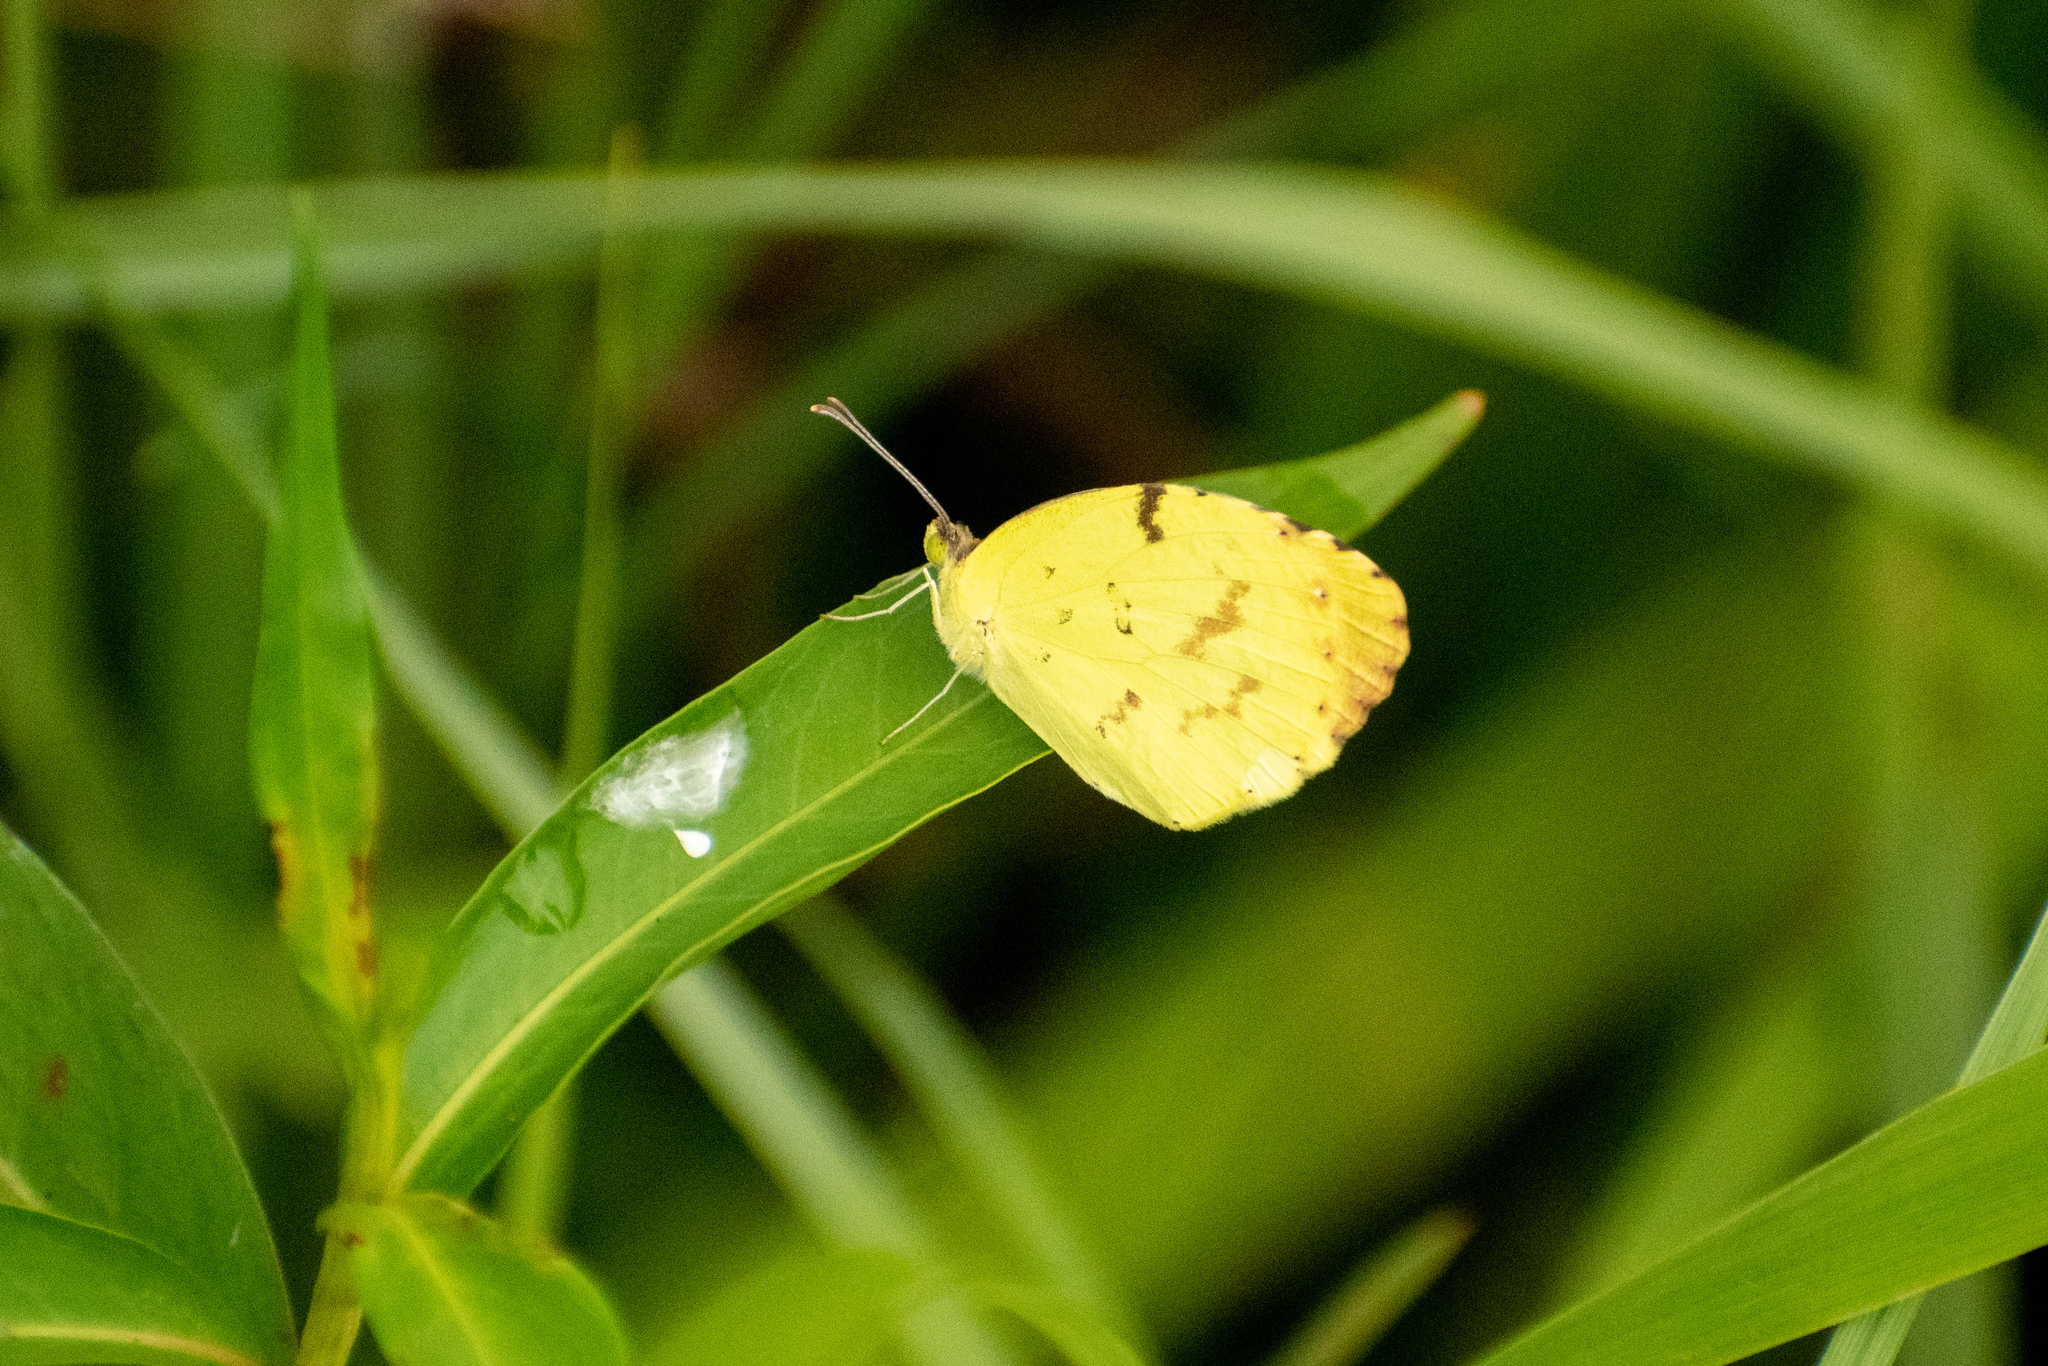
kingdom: Animalia
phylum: Arthropoda
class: Insecta
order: Lepidoptera
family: Pieridae
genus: Teriocolias
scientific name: Teriocolias
